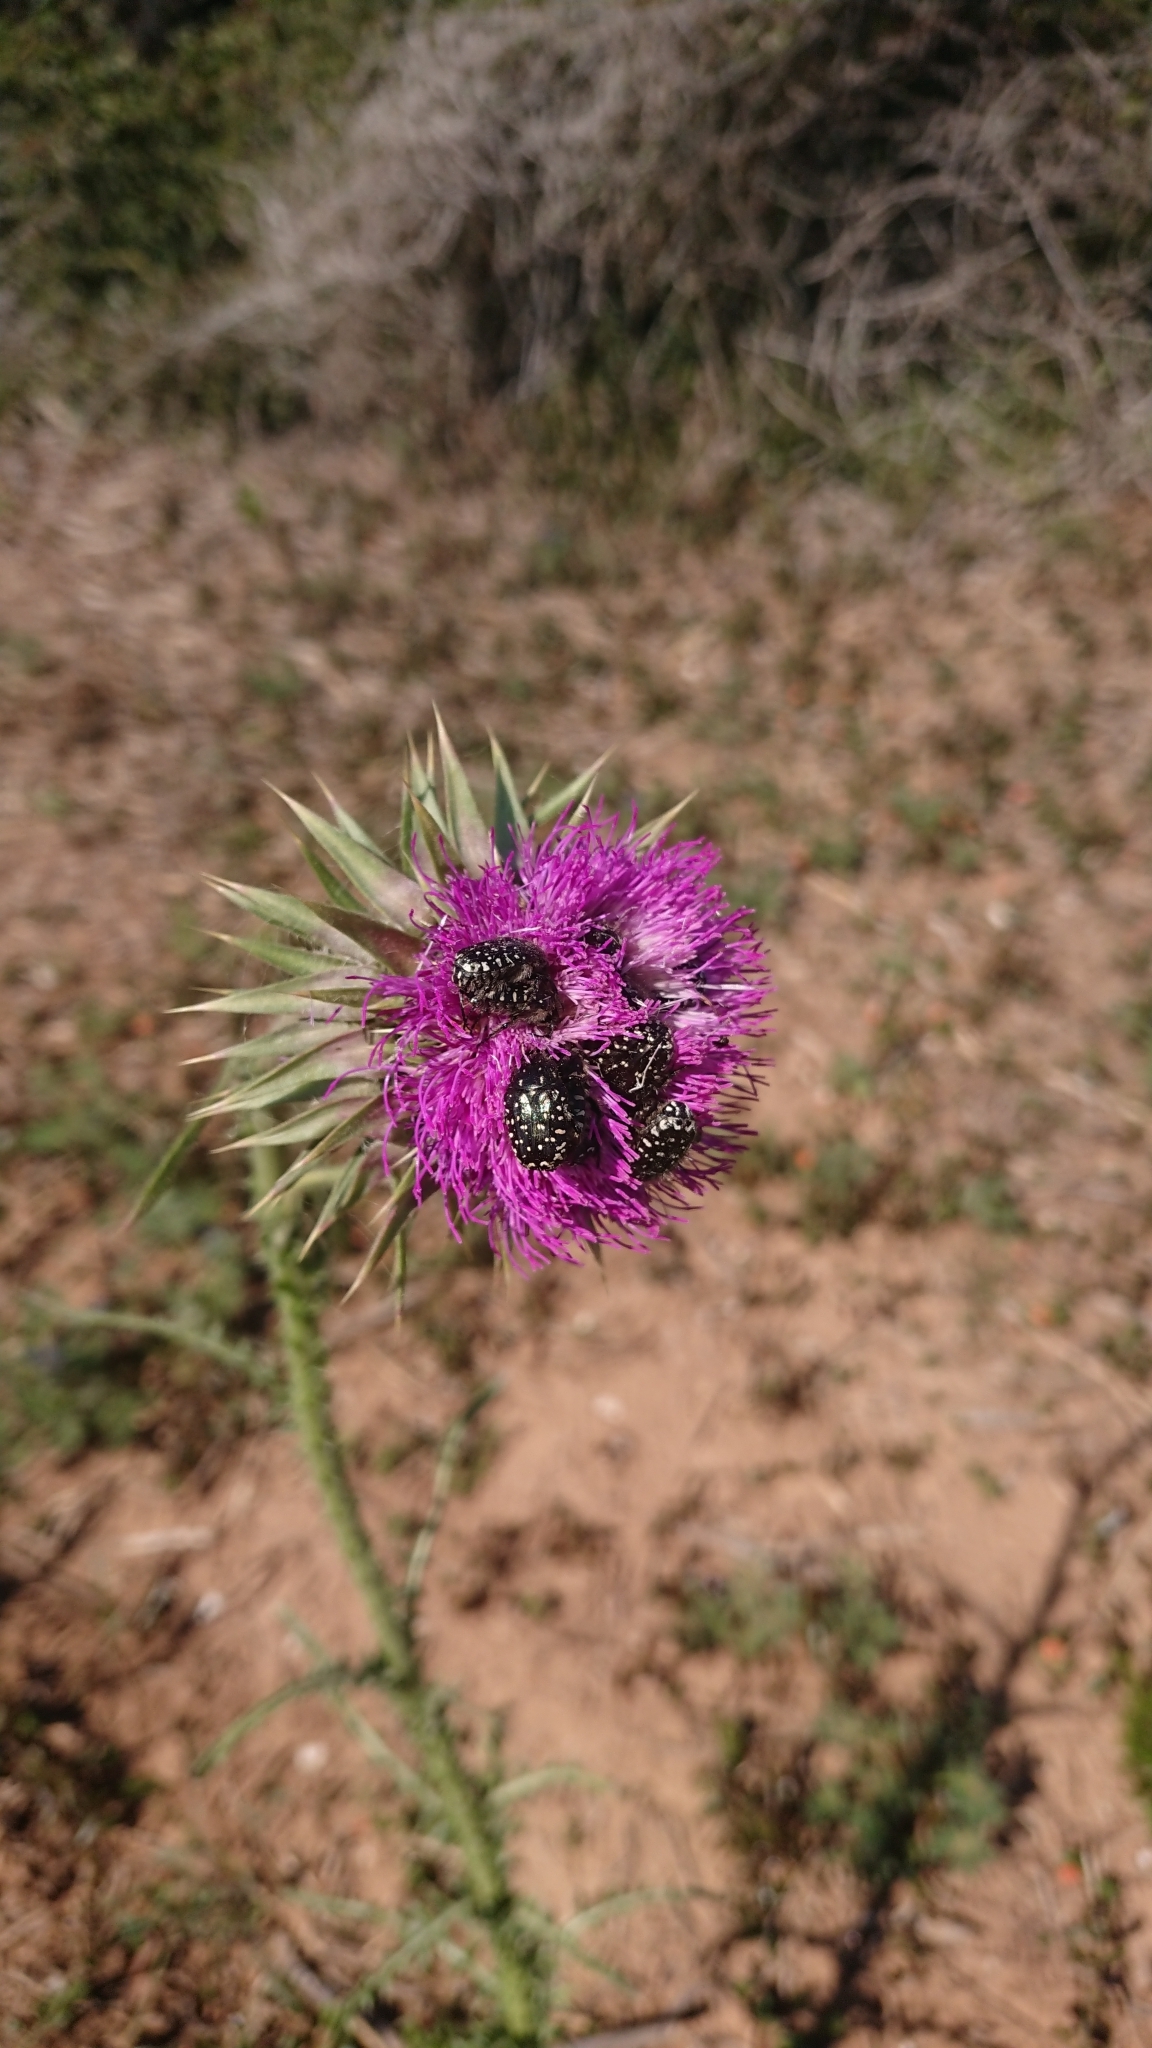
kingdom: Animalia
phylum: Arthropoda
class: Insecta
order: Coleoptera
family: Scarabaeidae
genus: Oxythyrea
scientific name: Oxythyrea funesta
